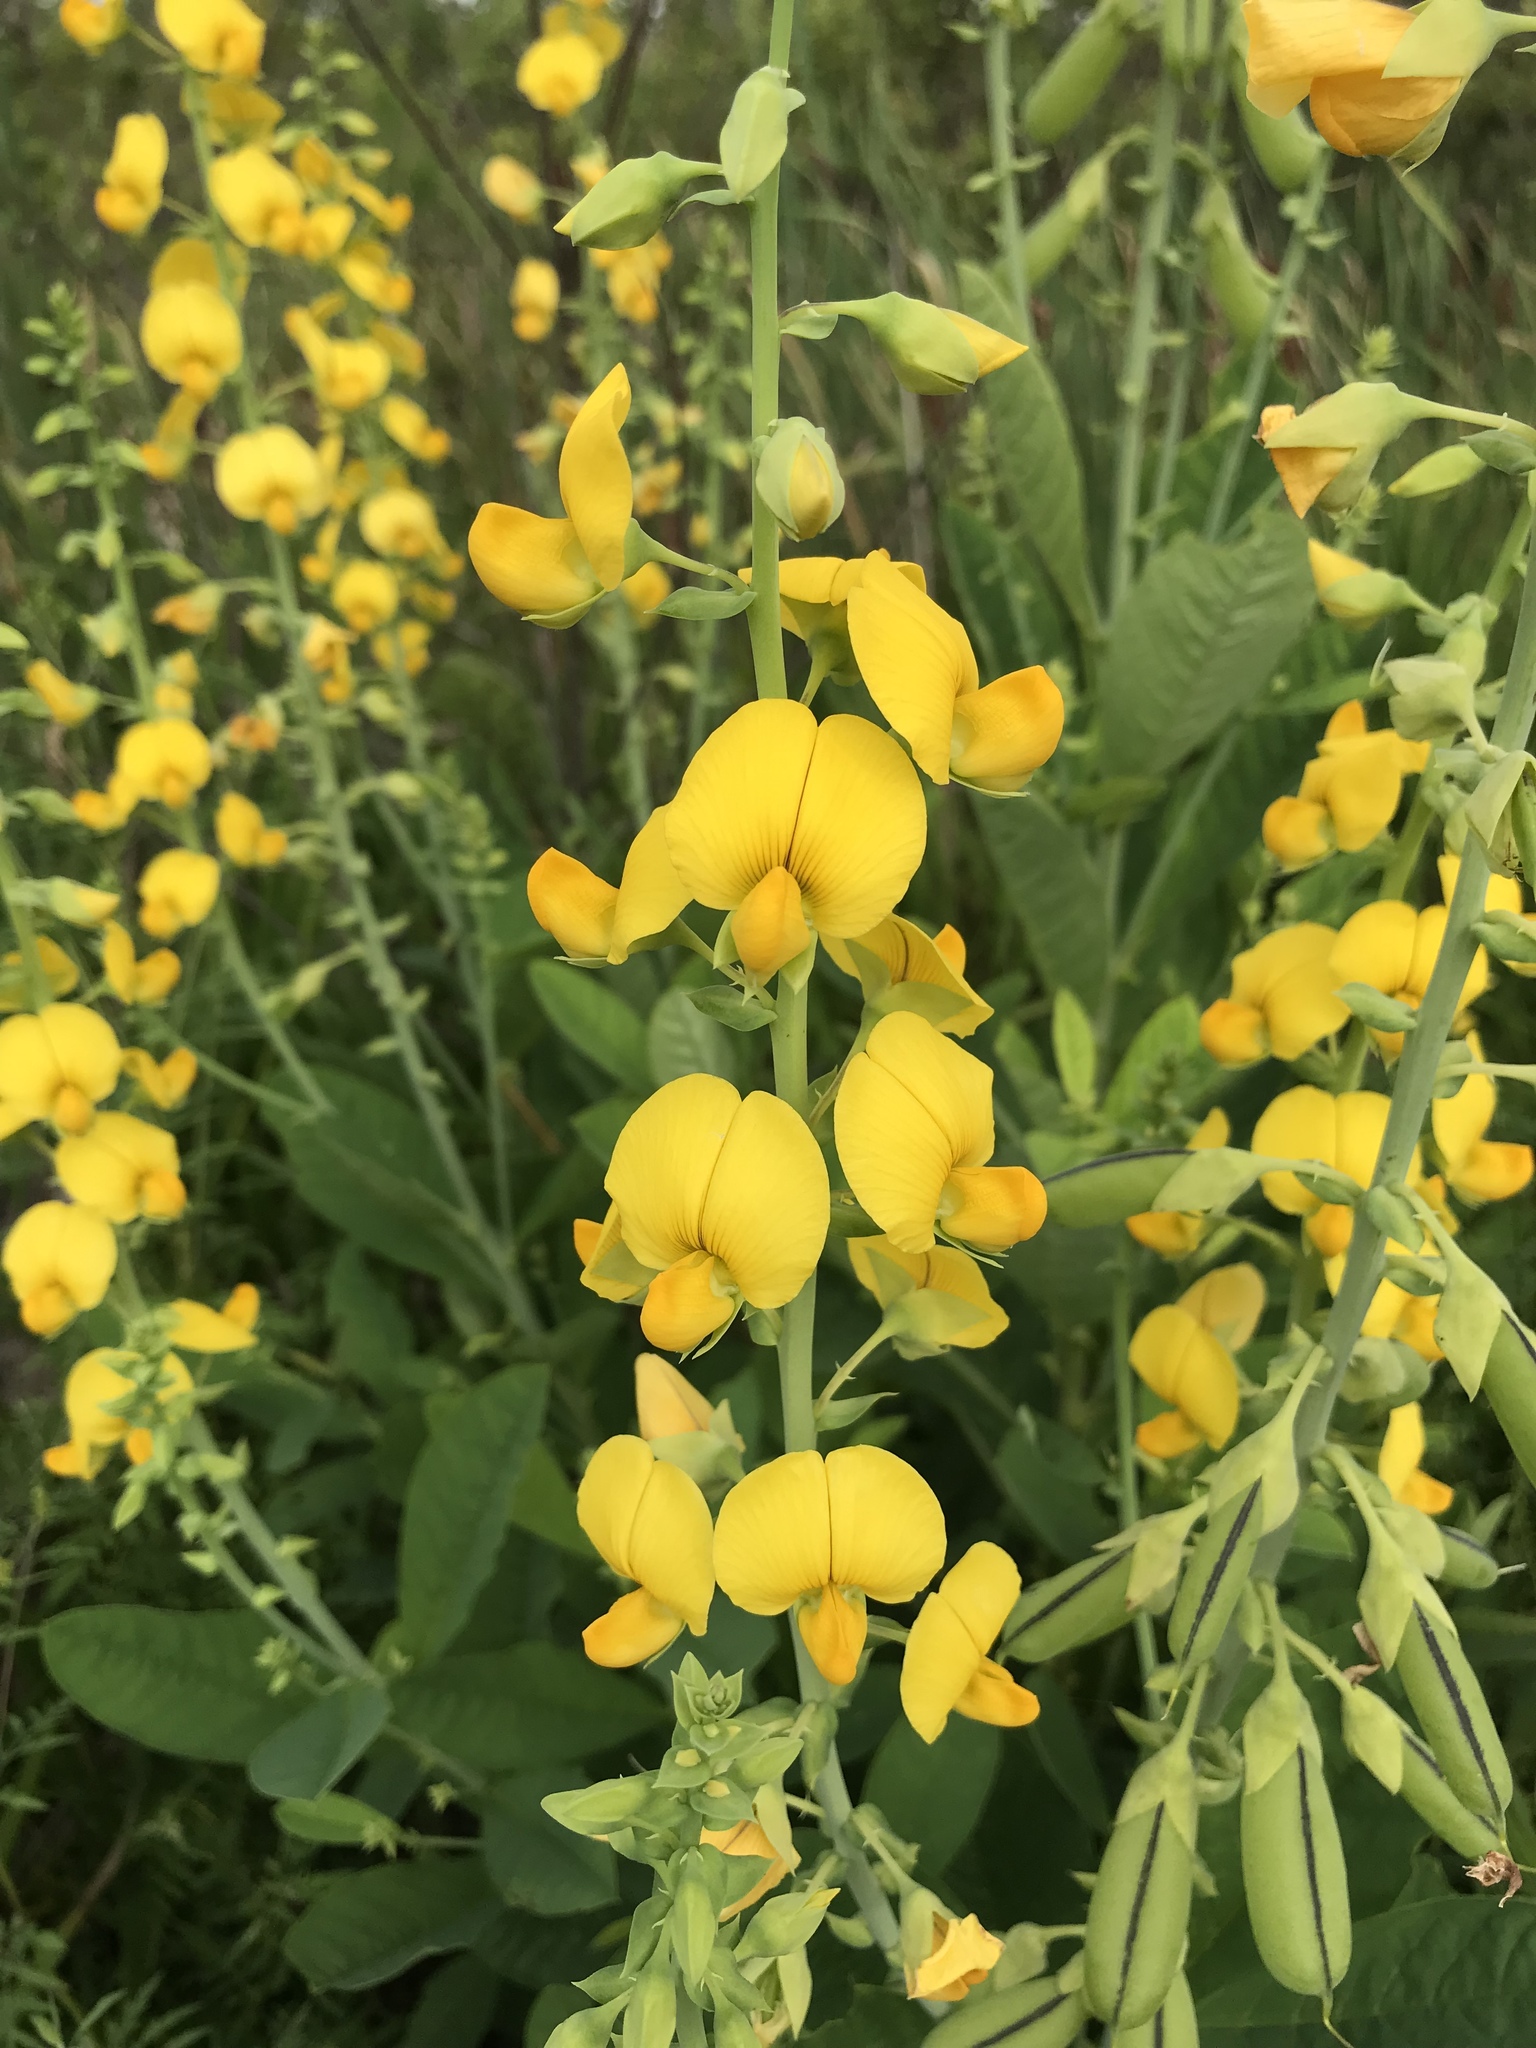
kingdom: Plantae
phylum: Tracheophyta
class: Magnoliopsida
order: Fabales
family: Fabaceae
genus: Crotalaria
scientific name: Crotalaria spectabilis
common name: Showy rattlebox
